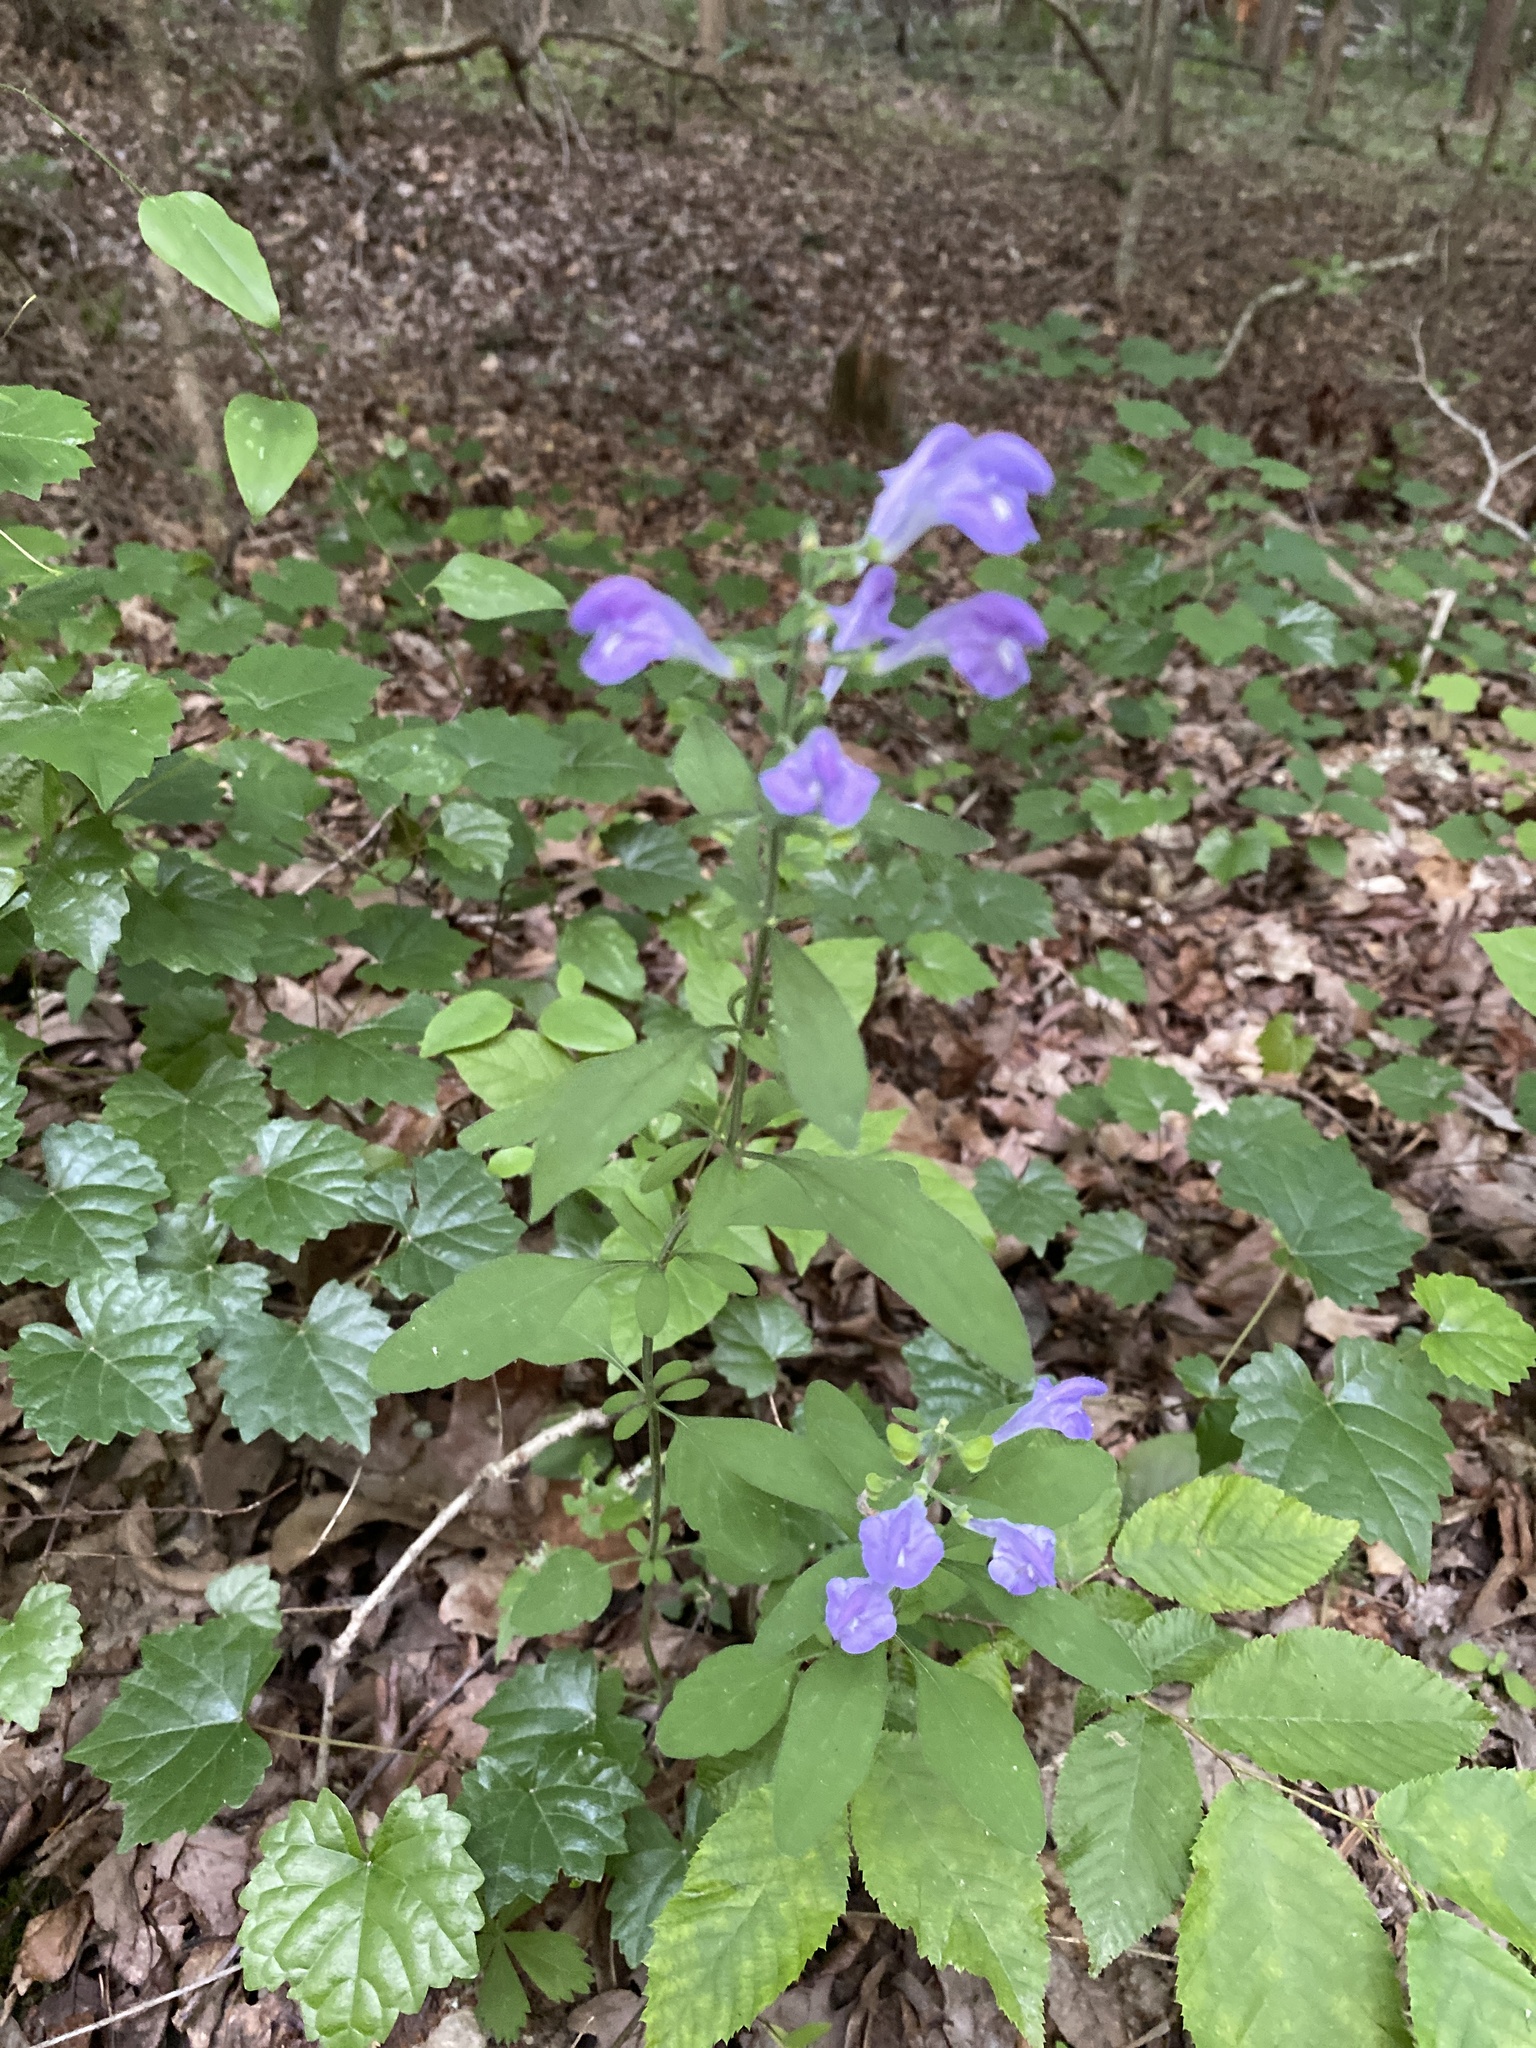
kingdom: Plantae
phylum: Tracheophyta
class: Magnoliopsida
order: Lamiales
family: Lamiaceae
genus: Scutellaria
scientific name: Scutellaria integrifolia
